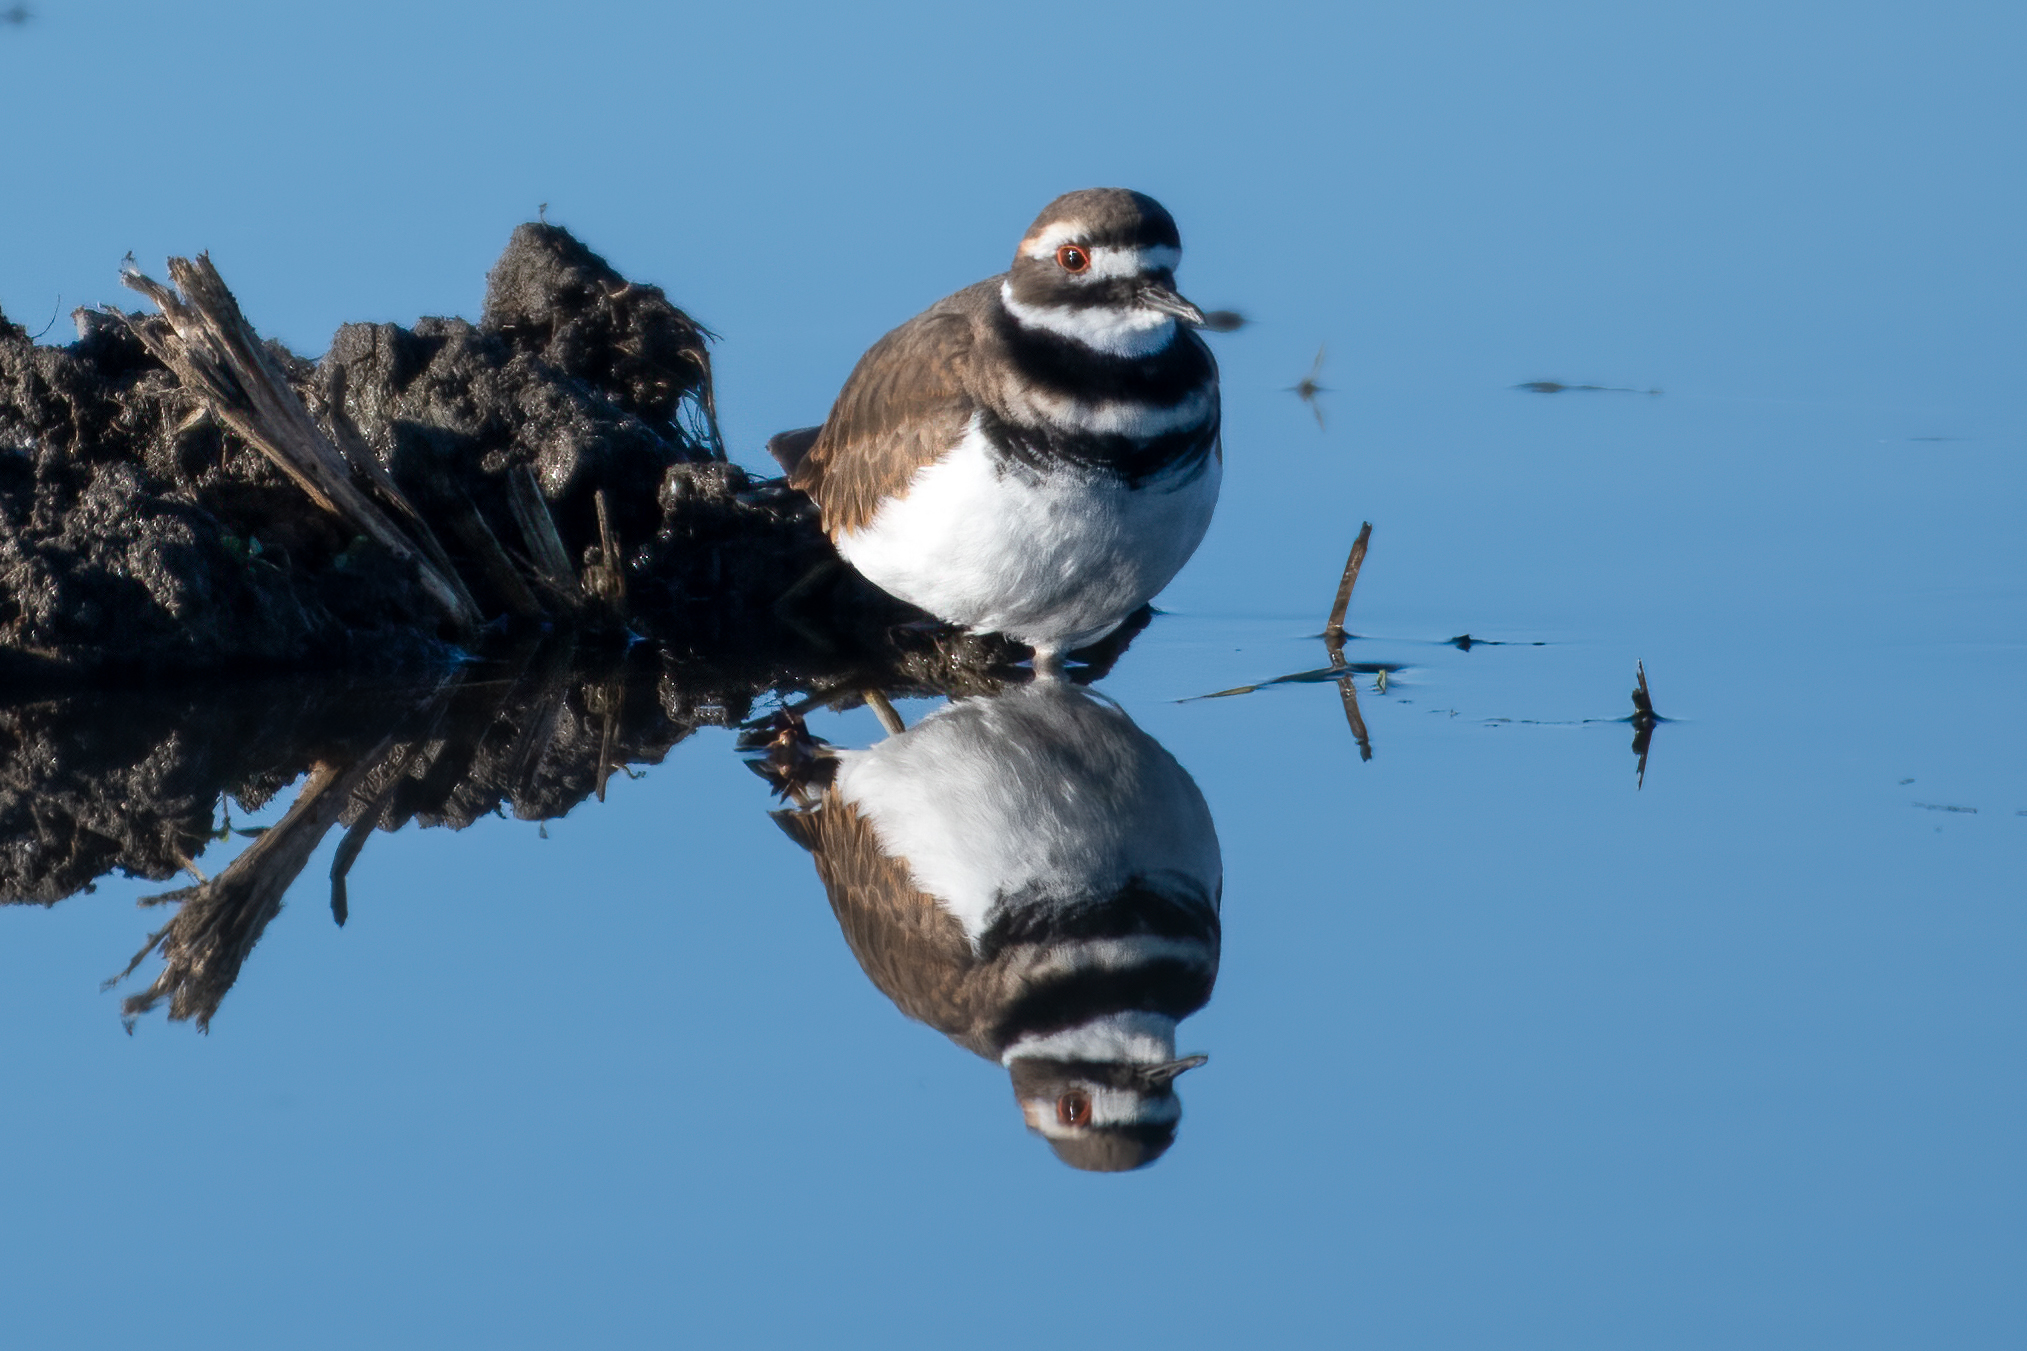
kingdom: Animalia
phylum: Chordata
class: Aves
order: Charadriiformes
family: Charadriidae
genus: Charadrius
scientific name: Charadrius vociferus
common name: Killdeer
